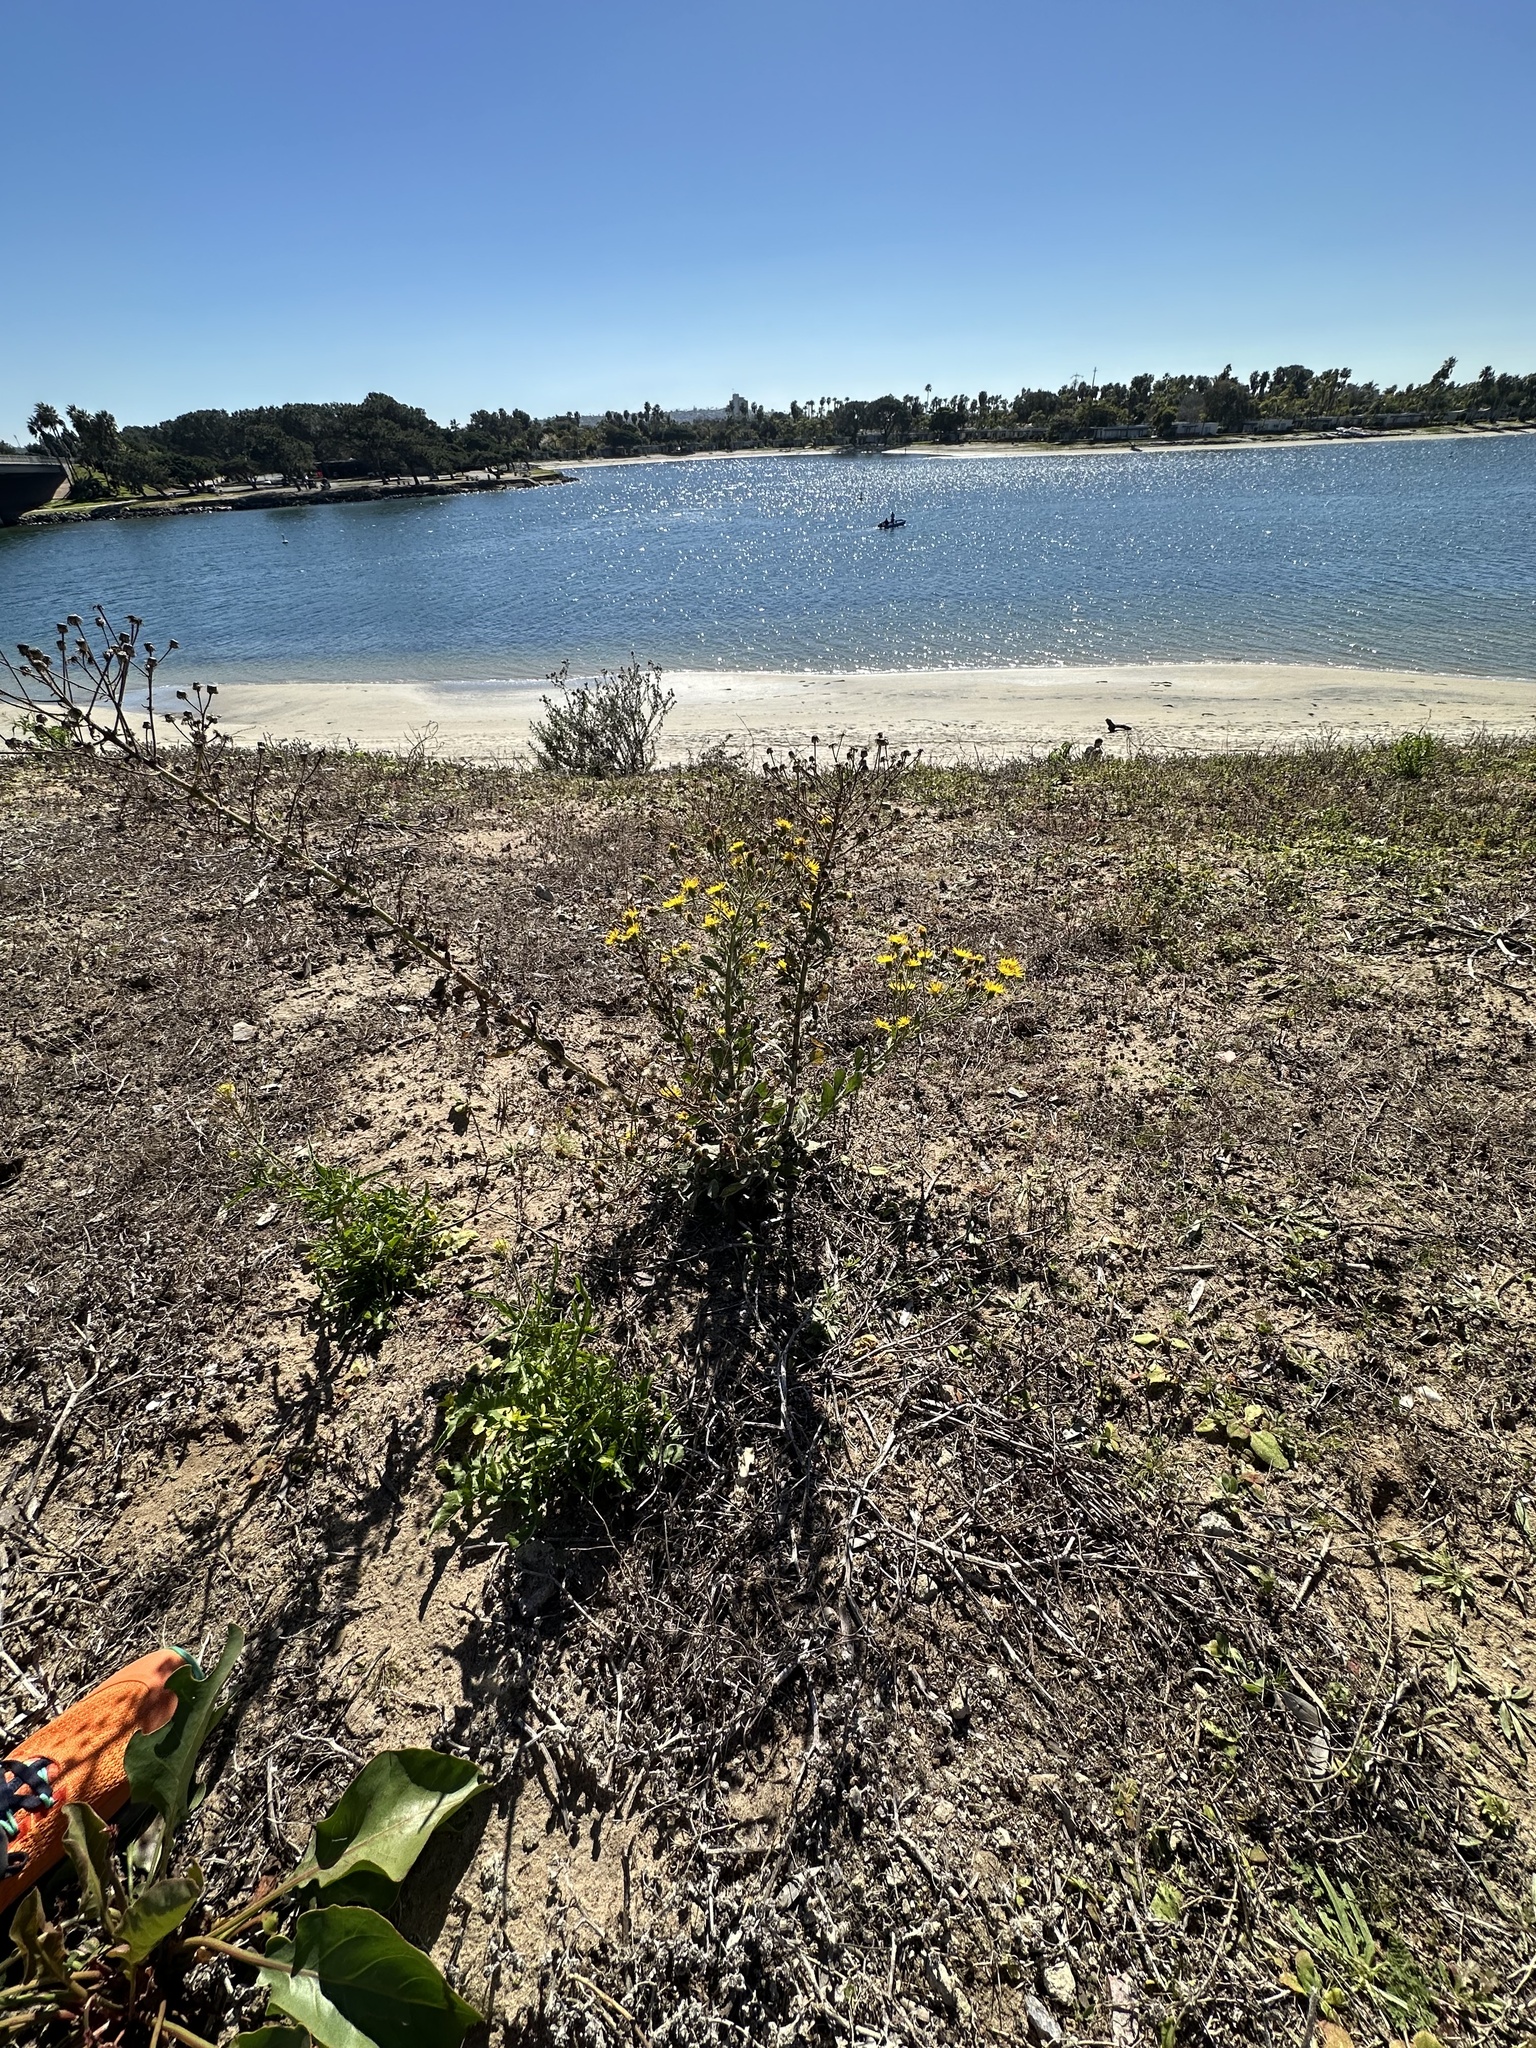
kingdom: Plantae
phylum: Tracheophyta
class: Magnoliopsida
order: Asterales
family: Asteraceae
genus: Heterotheca
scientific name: Heterotheca grandiflora
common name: Telegraphweed
